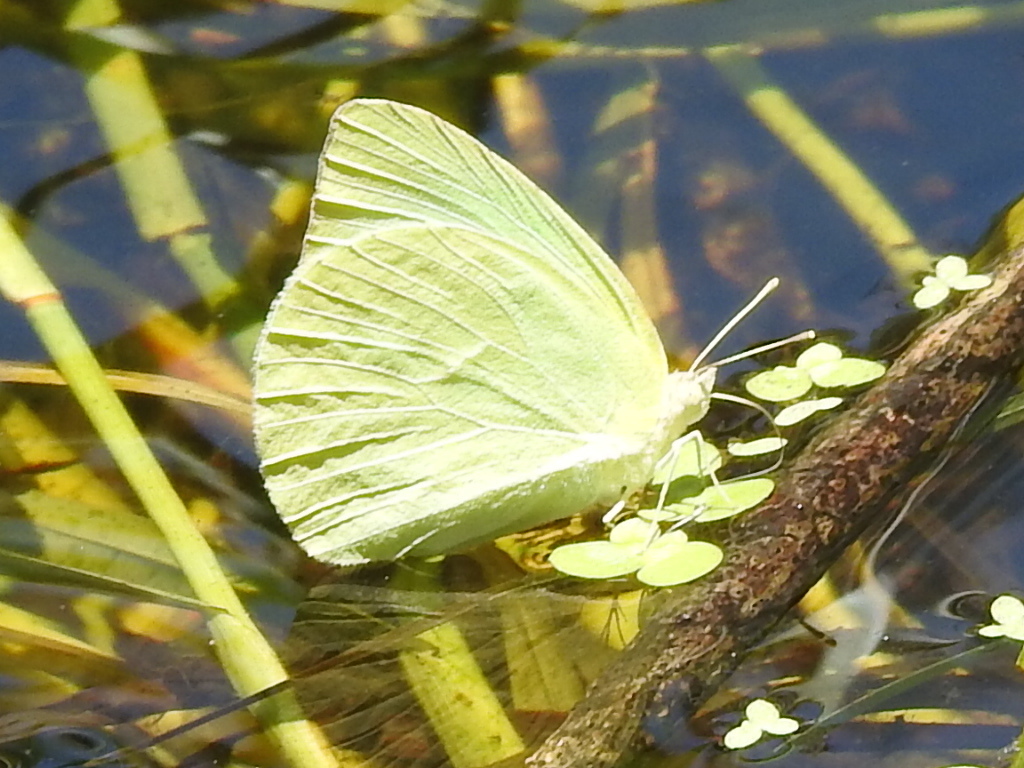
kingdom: Animalia
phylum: Arthropoda
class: Insecta
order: Lepidoptera
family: Pieridae
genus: Kricogonia
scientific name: Kricogonia lyside
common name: Guayacan sulphur,
